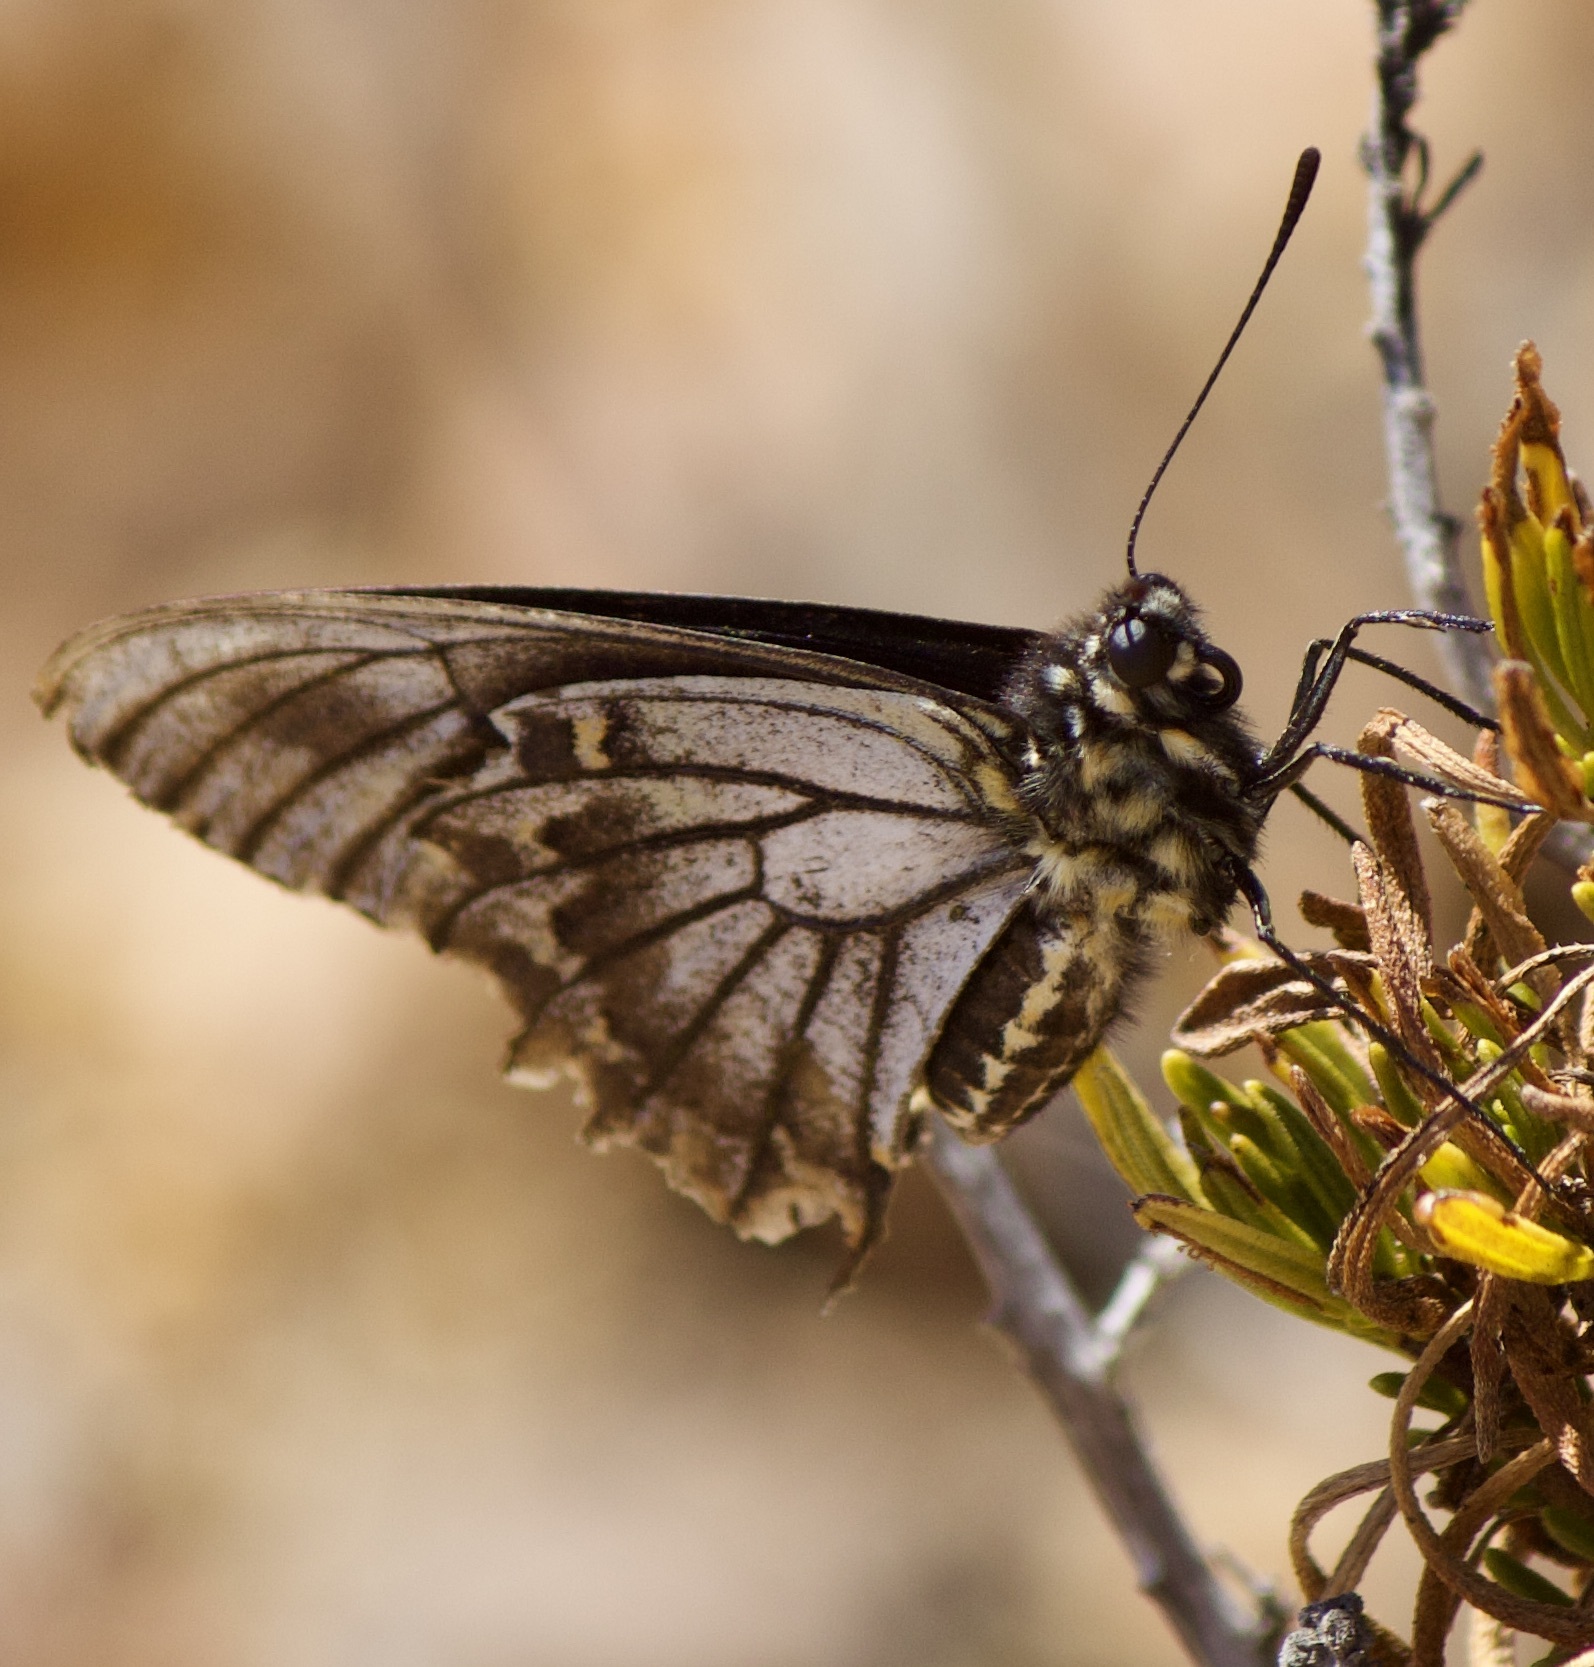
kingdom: Animalia
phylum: Arthropoda
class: Insecta
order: Lepidoptera
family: Papilionidae
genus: Battus
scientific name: Battus polydamas
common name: Polydamas swallowtail
